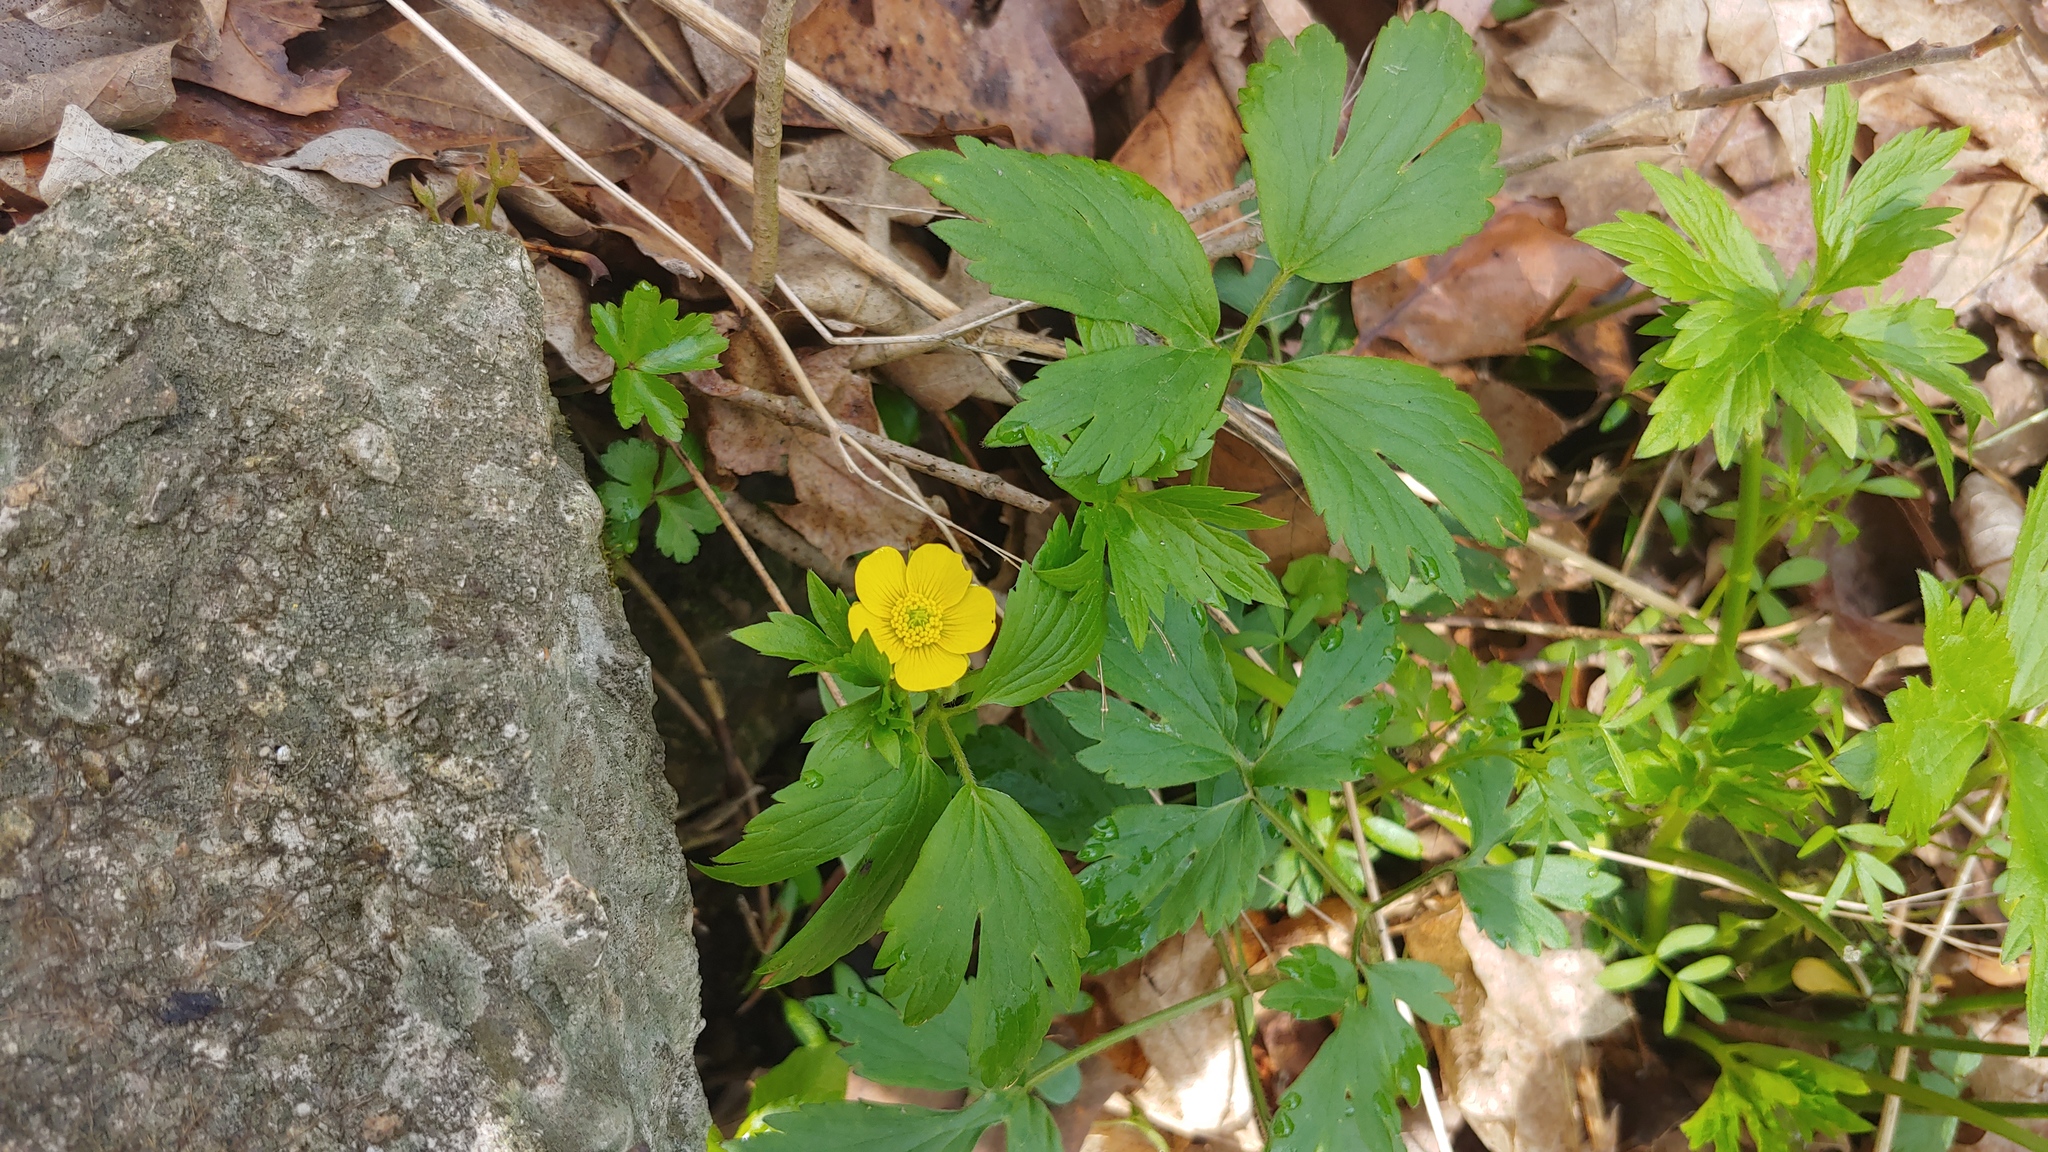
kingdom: Plantae
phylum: Tracheophyta
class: Magnoliopsida
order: Ranunculales
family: Ranunculaceae
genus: Ranunculus
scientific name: Ranunculus hispidus
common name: Bristly buttercup
